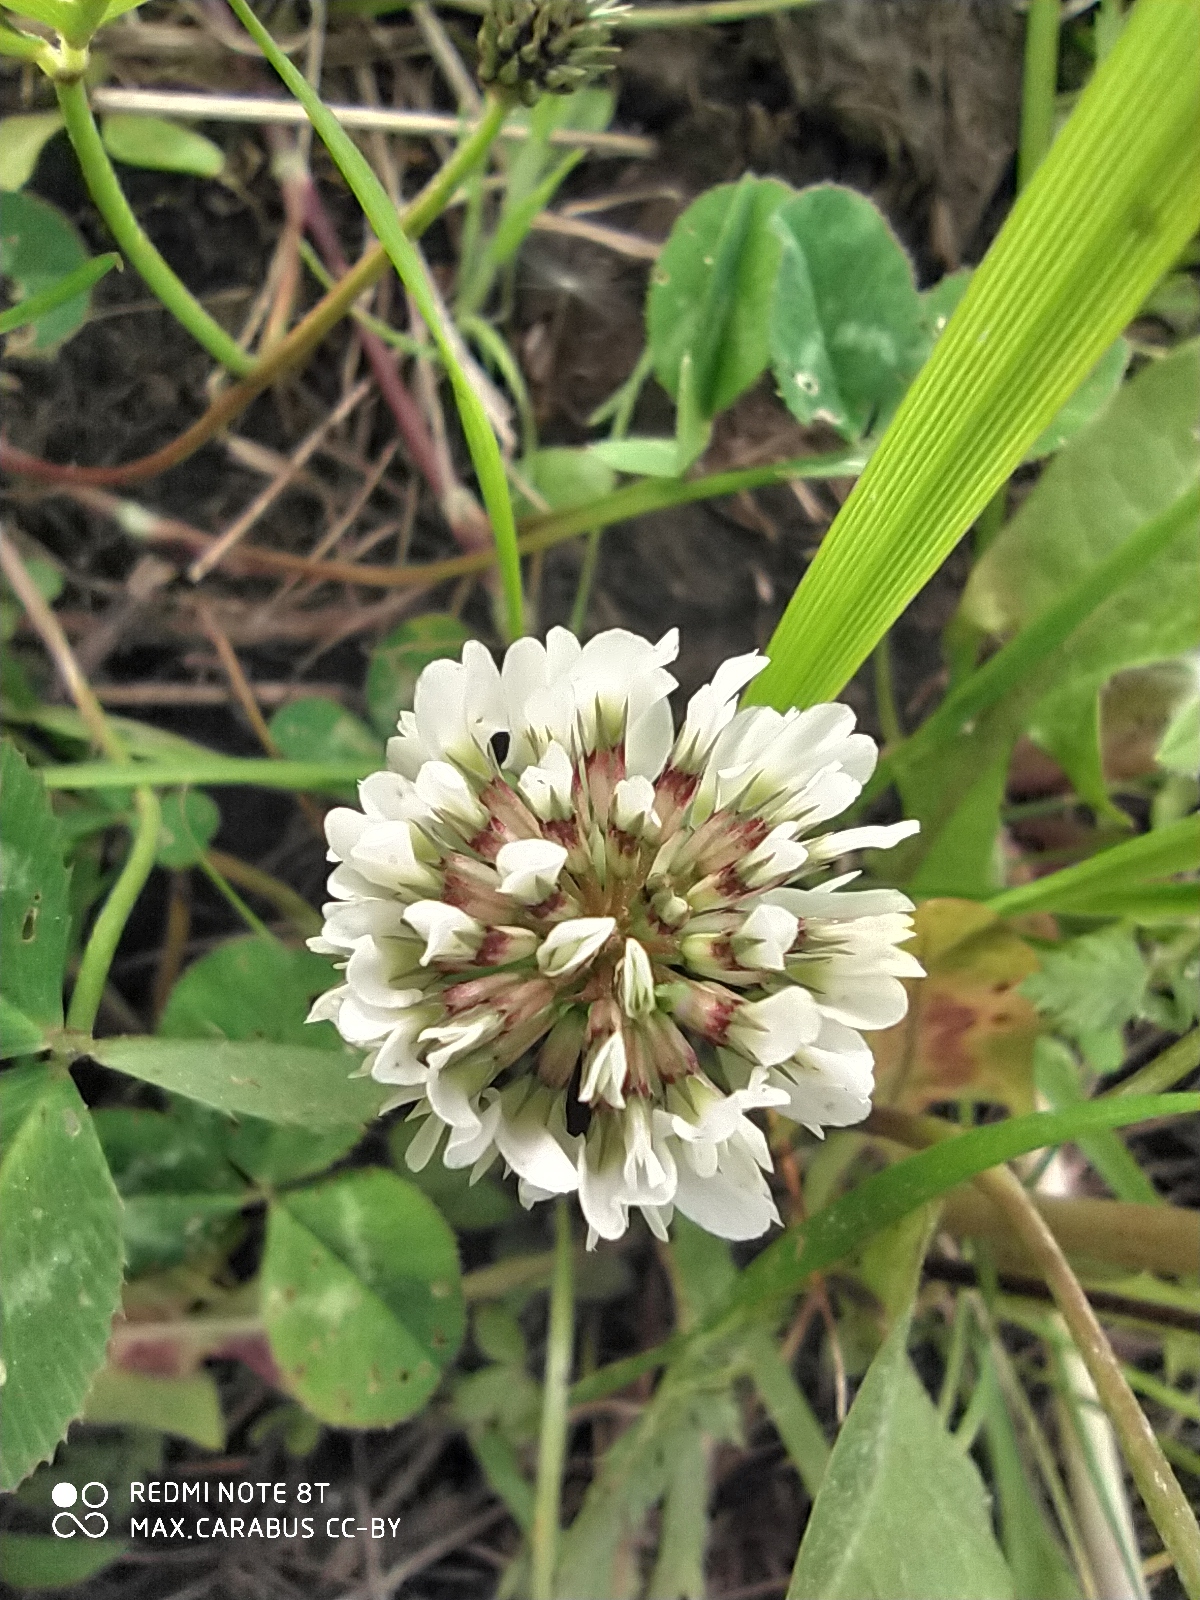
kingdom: Plantae
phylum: Tracheophyta
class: Magnoliopsida
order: Fabales
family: Fabaceae
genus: Trifolium
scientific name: Trifolium repens
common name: White clover
